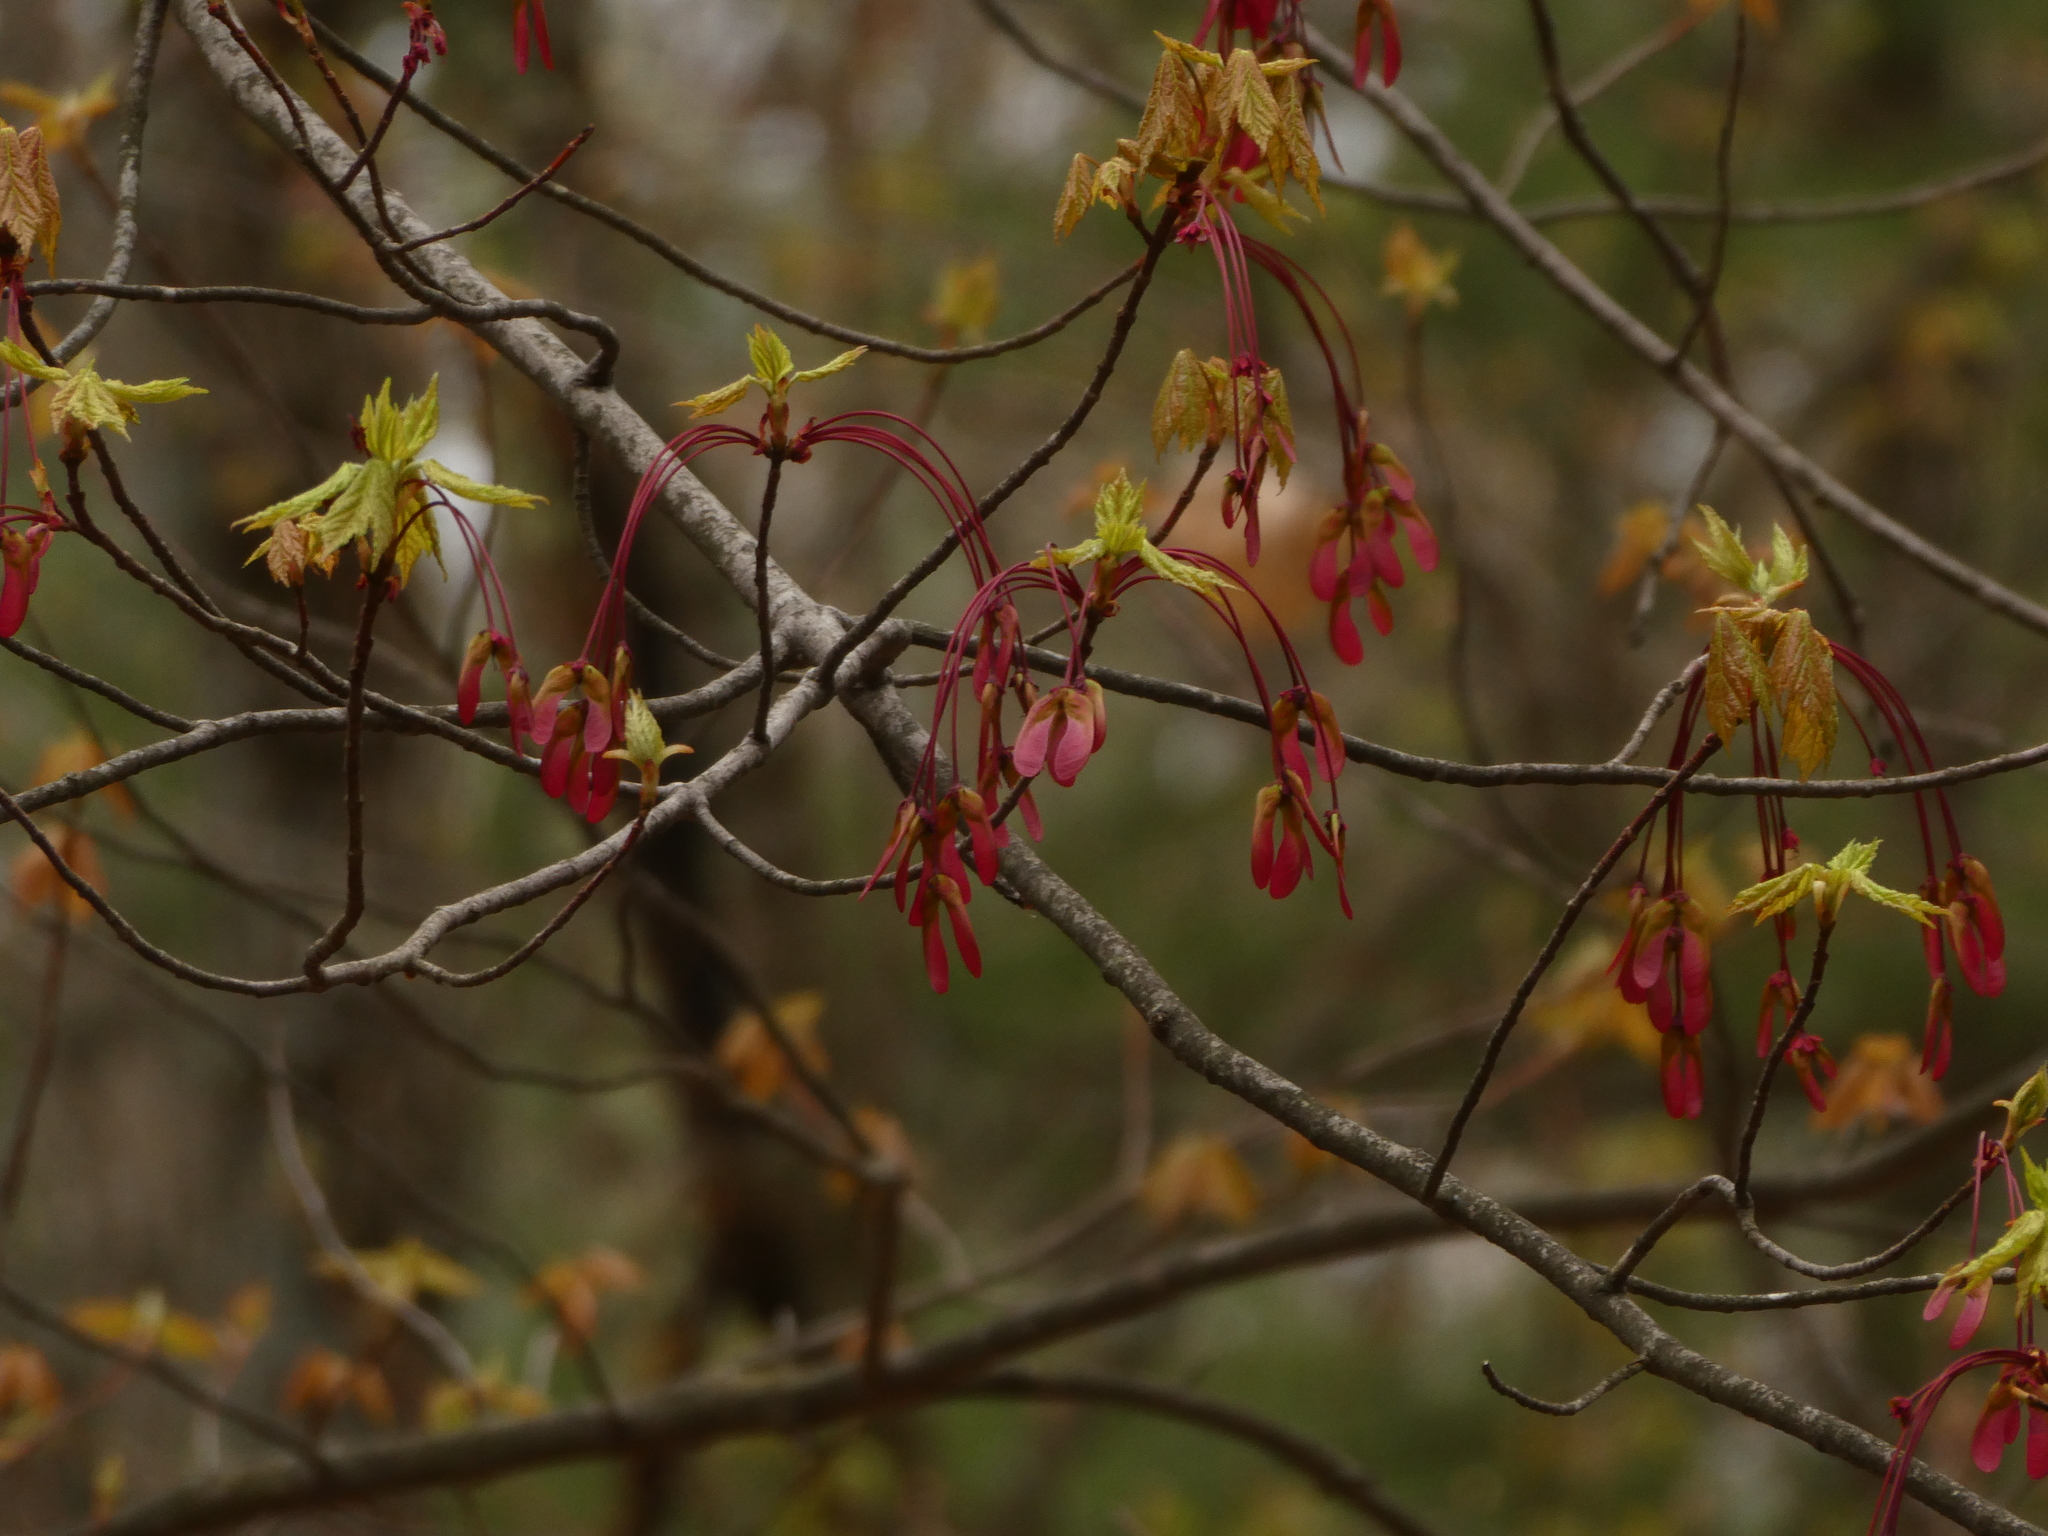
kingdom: Plantae
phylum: Tracheophyta
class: Magnoliopsida
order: Sapindales
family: Sapindaceae
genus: Acer
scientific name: Acer rubrum
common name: Red maple
